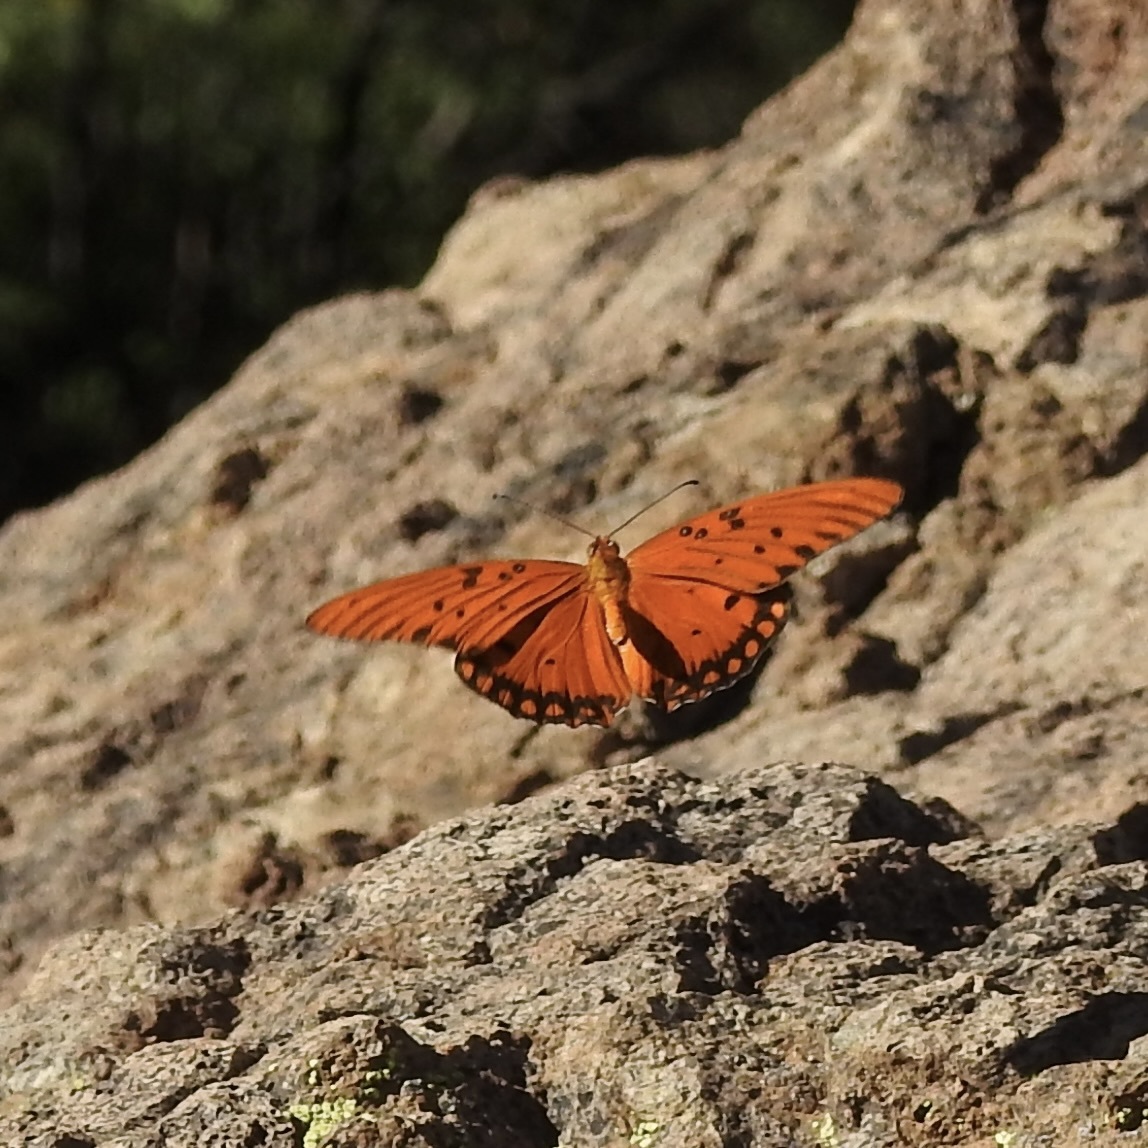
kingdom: Animalia
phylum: Arthropoda
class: Insecta
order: Lepidoptera
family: Nymphalidae
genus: Dione
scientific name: Dione vanillae
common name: Gulf fritillary
